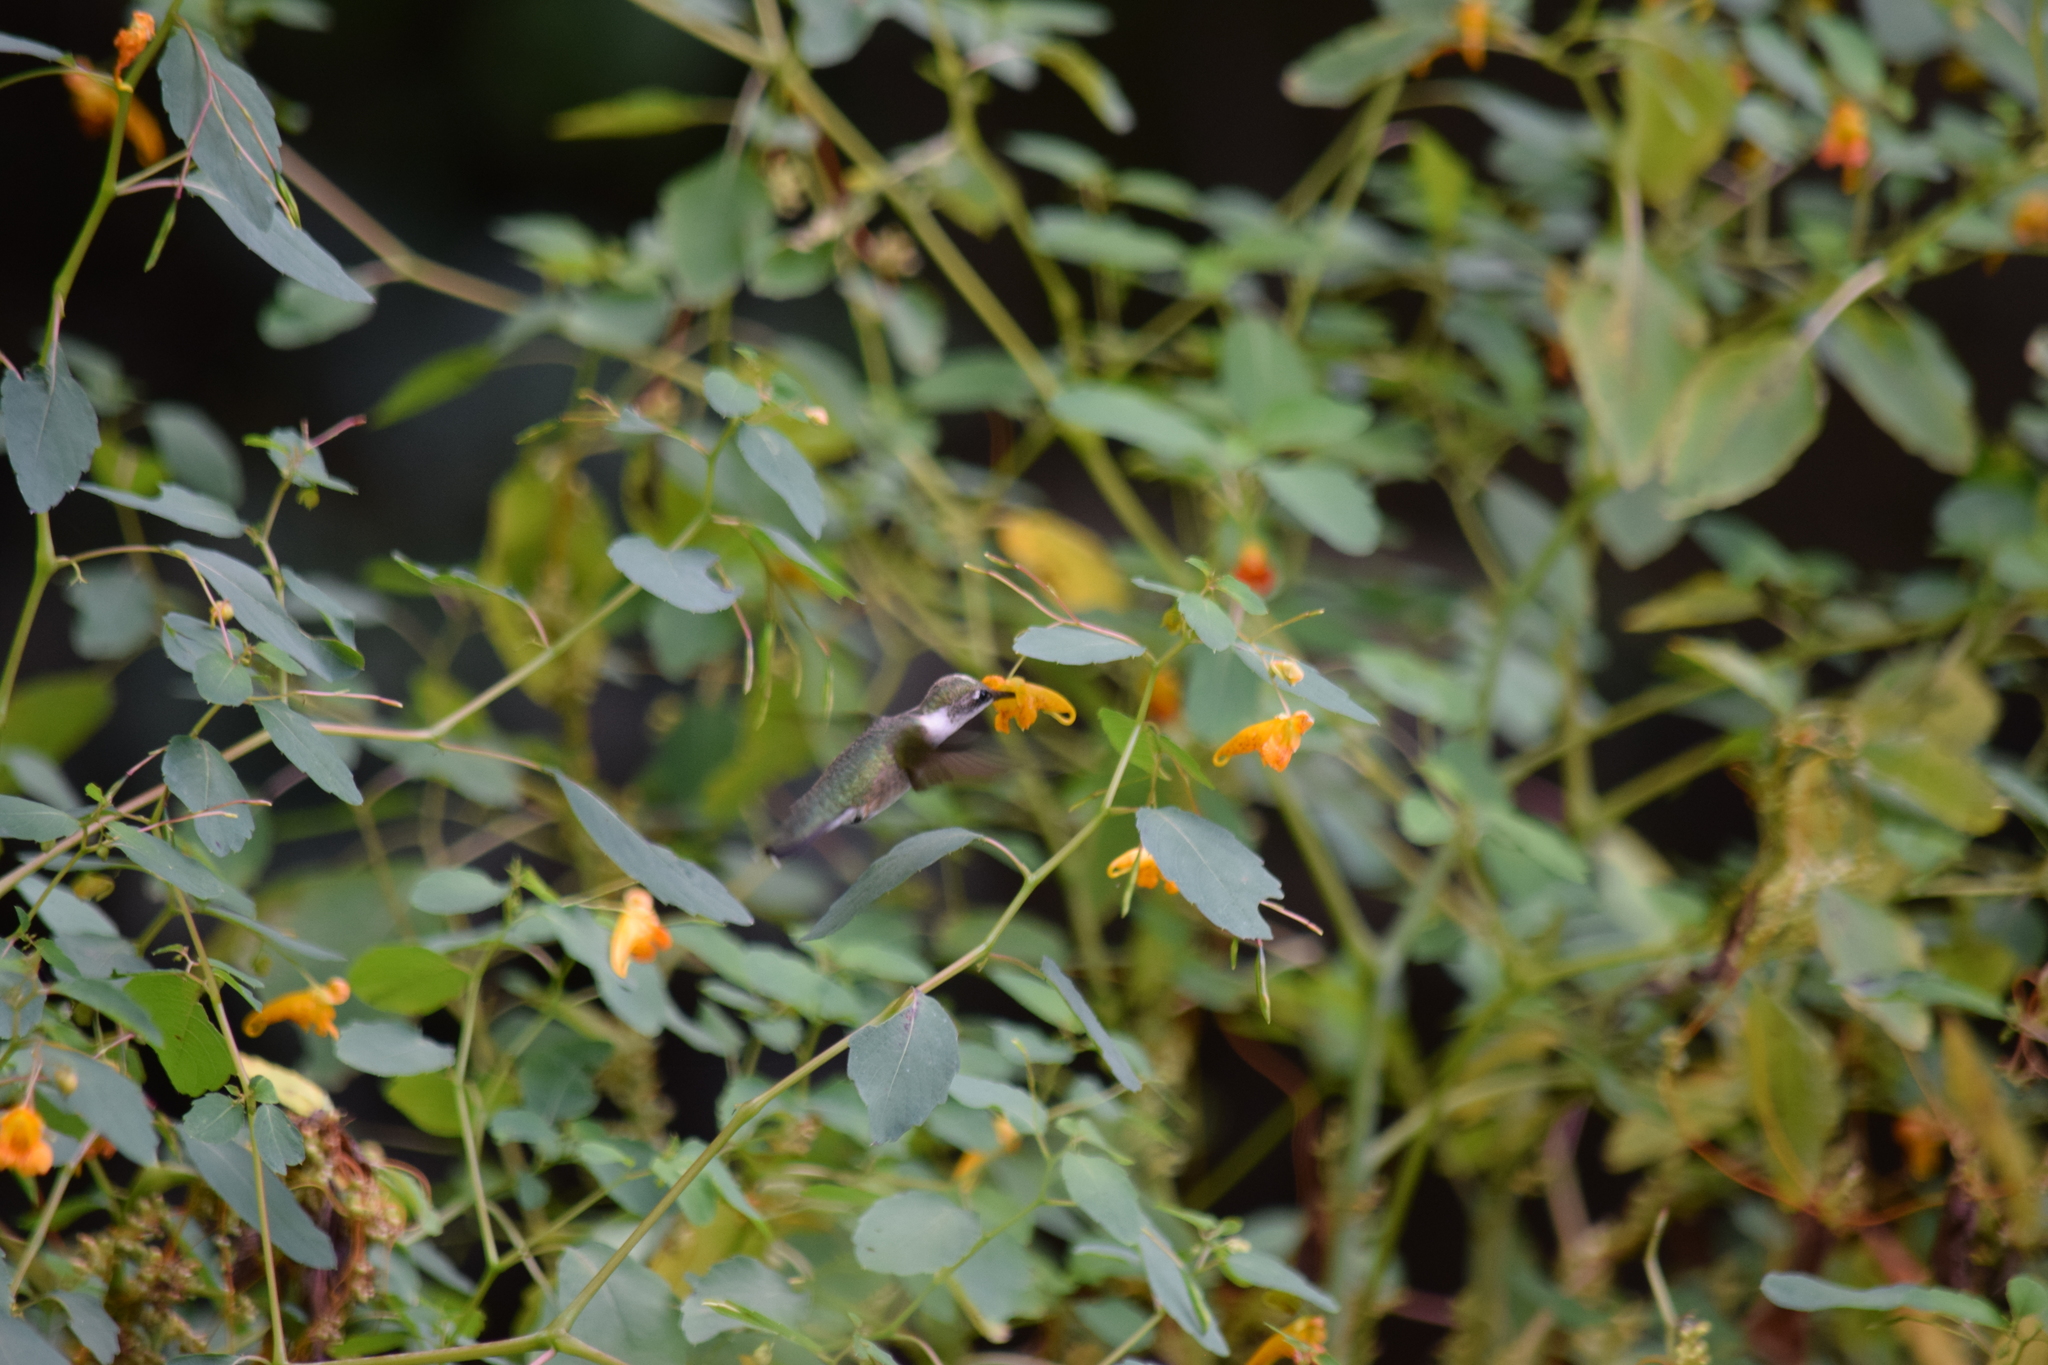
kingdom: Animalia
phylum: Chordata
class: Aves
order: Apodiformes
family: Trochilidae
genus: Archilochus
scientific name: Archilochus colubris
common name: Ruby-throated hummingbird
